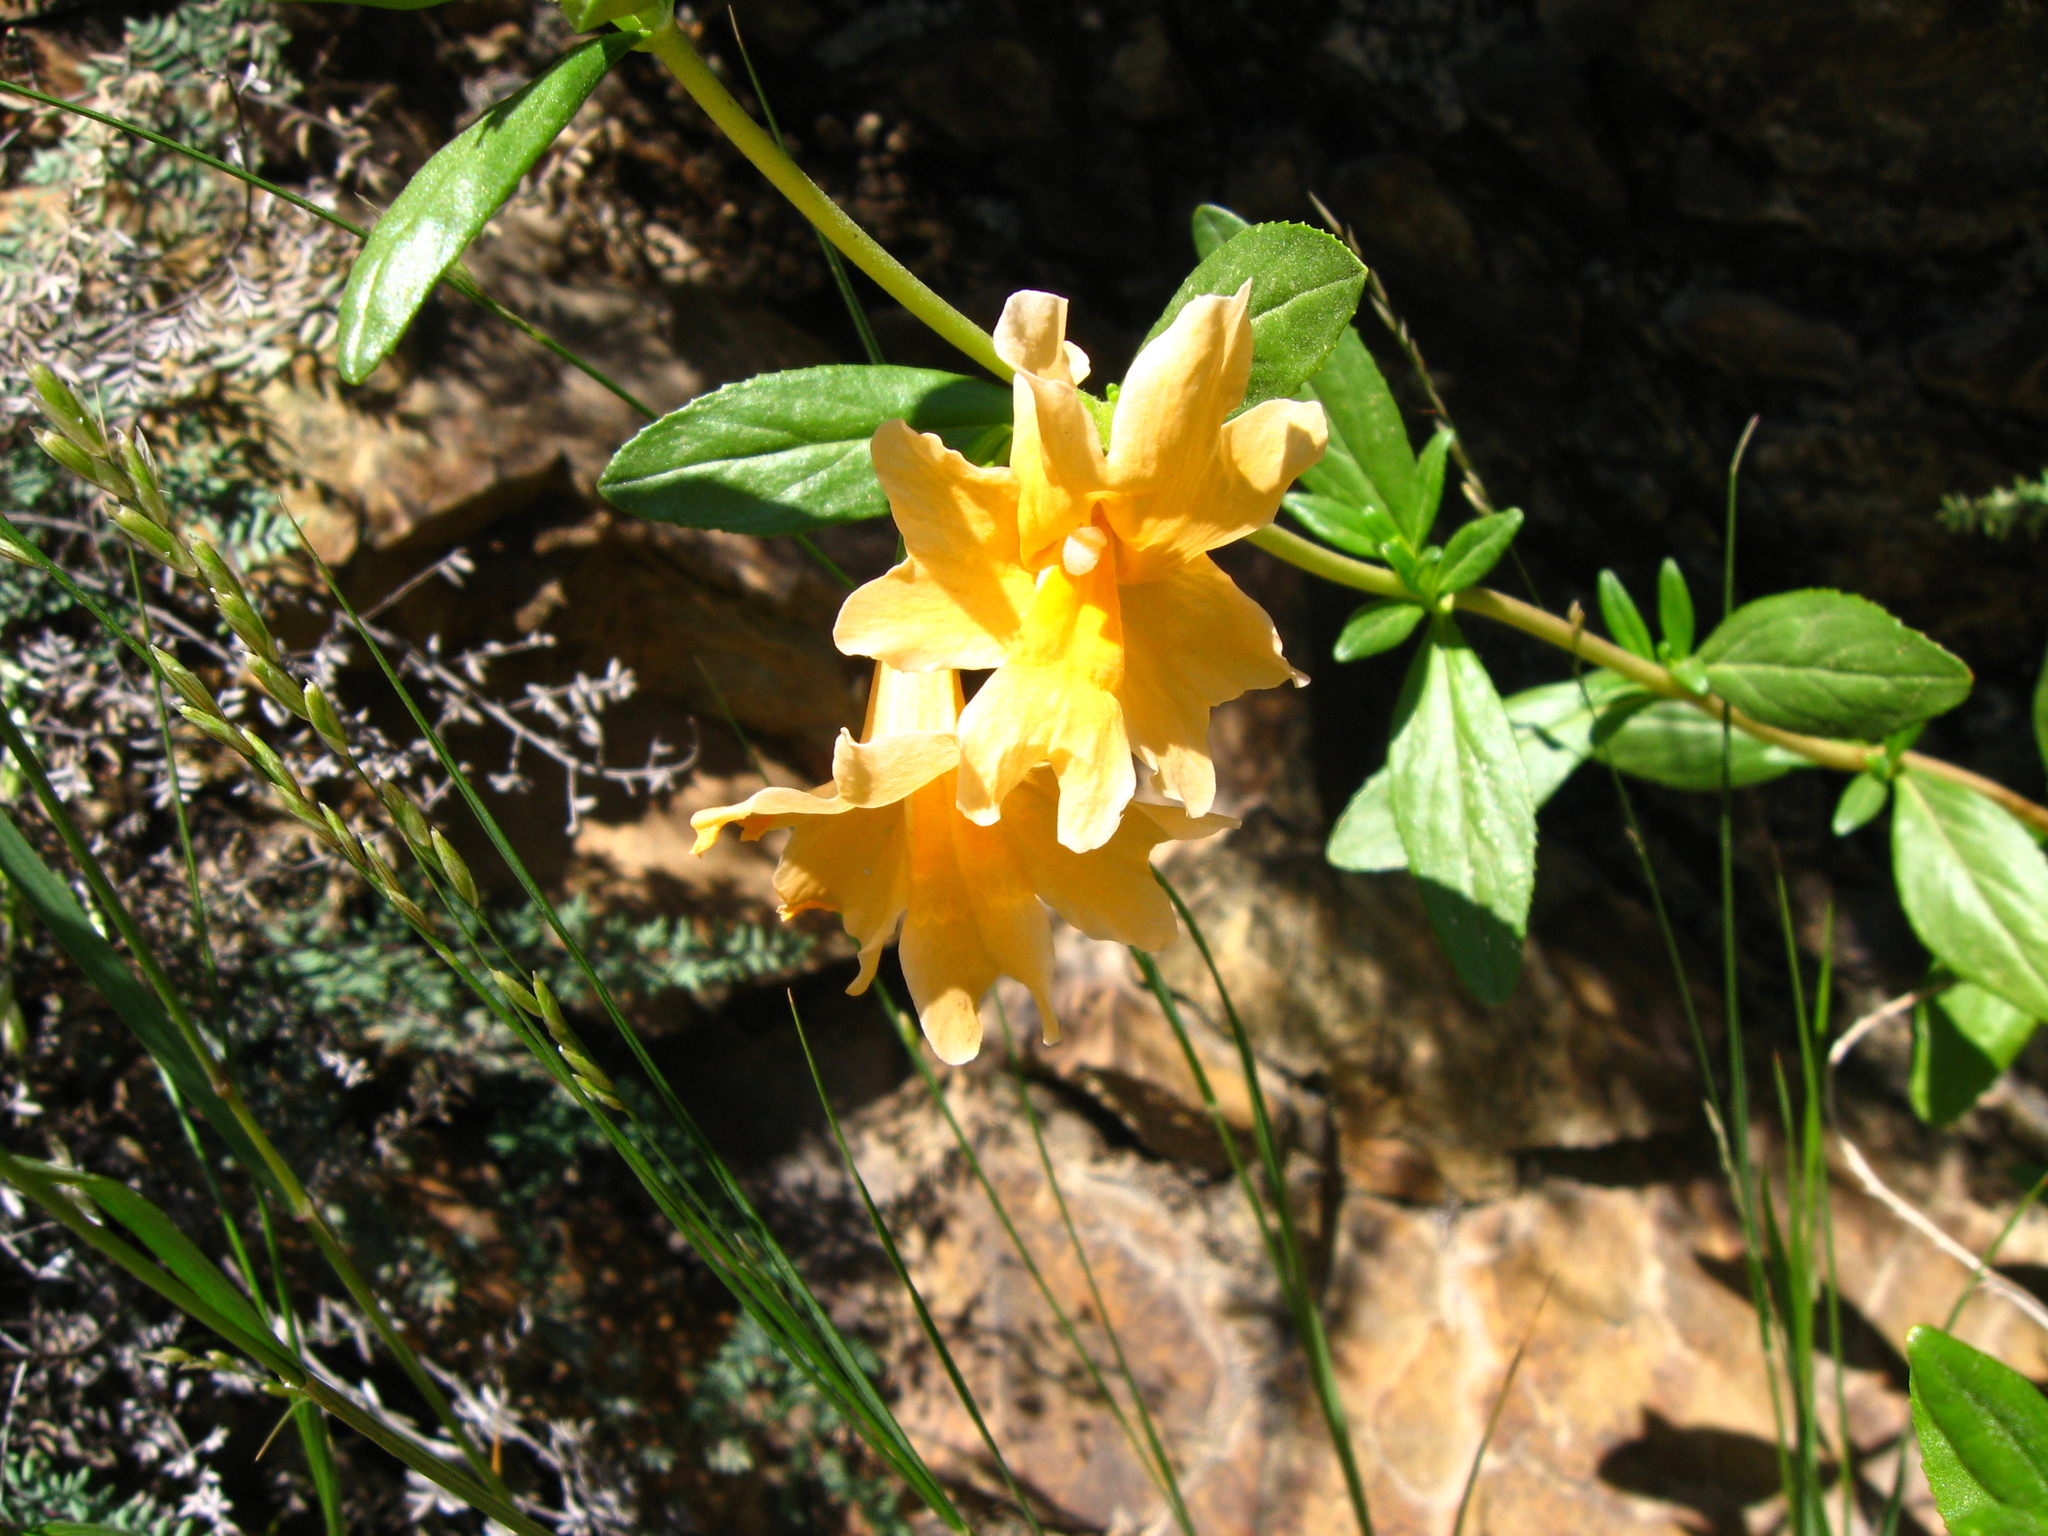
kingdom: Plantae
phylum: Tracheophyta
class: Magnoliopsida
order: Lamiales
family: Phrymaceae
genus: Diplacus
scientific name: Diplacus grandiflorus
